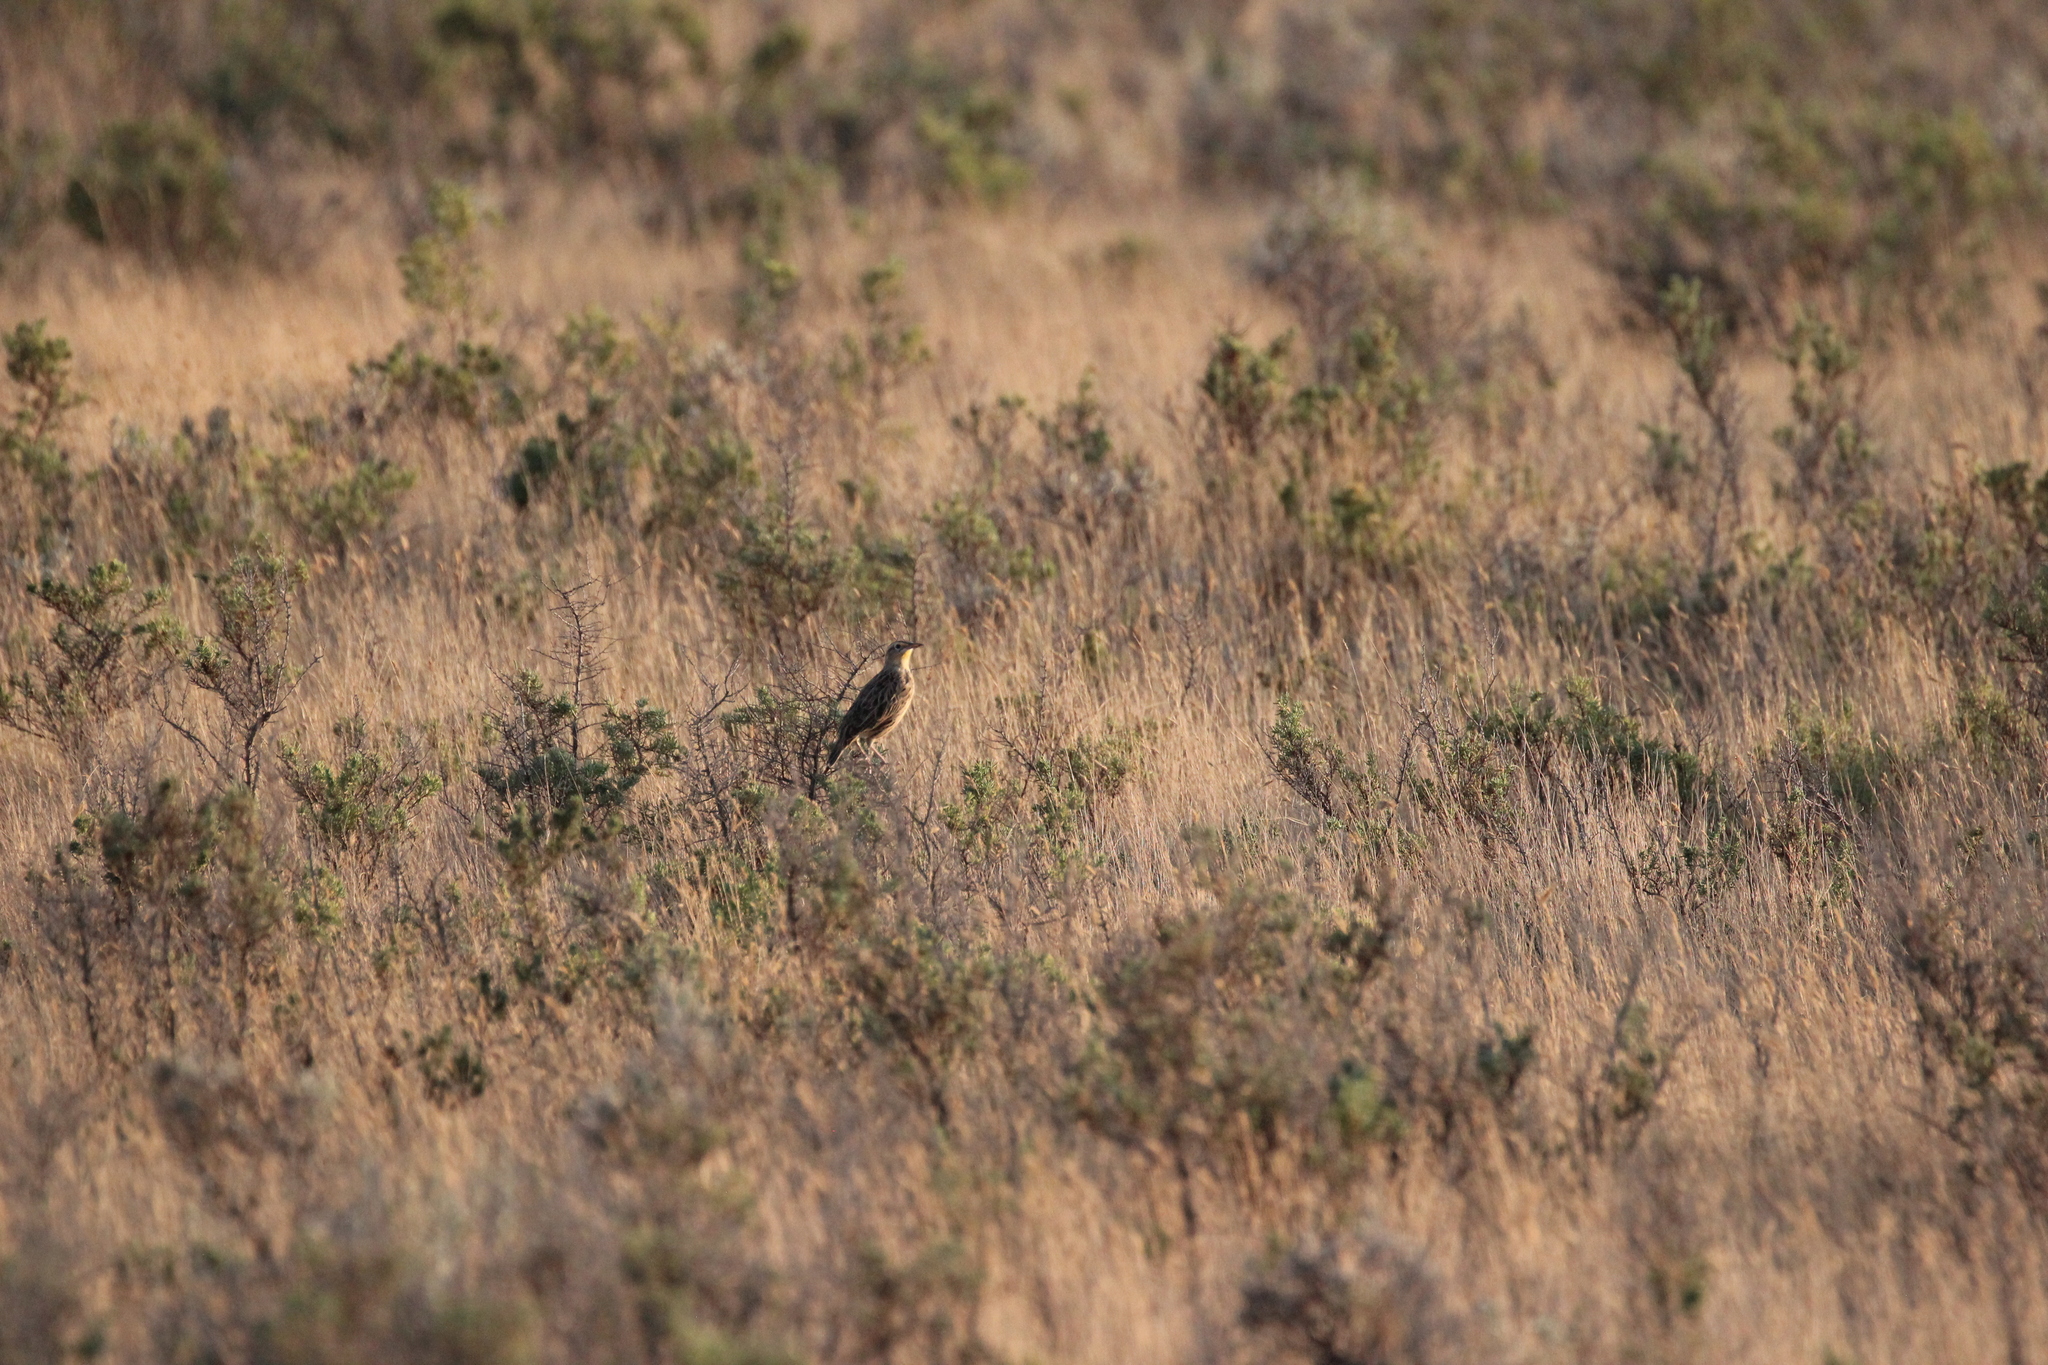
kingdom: Animalia
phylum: Chordata
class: Aves
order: Passeriformes
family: Icteridae
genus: Sturnella
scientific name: Sturnella neglecta
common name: Western meadowlark
